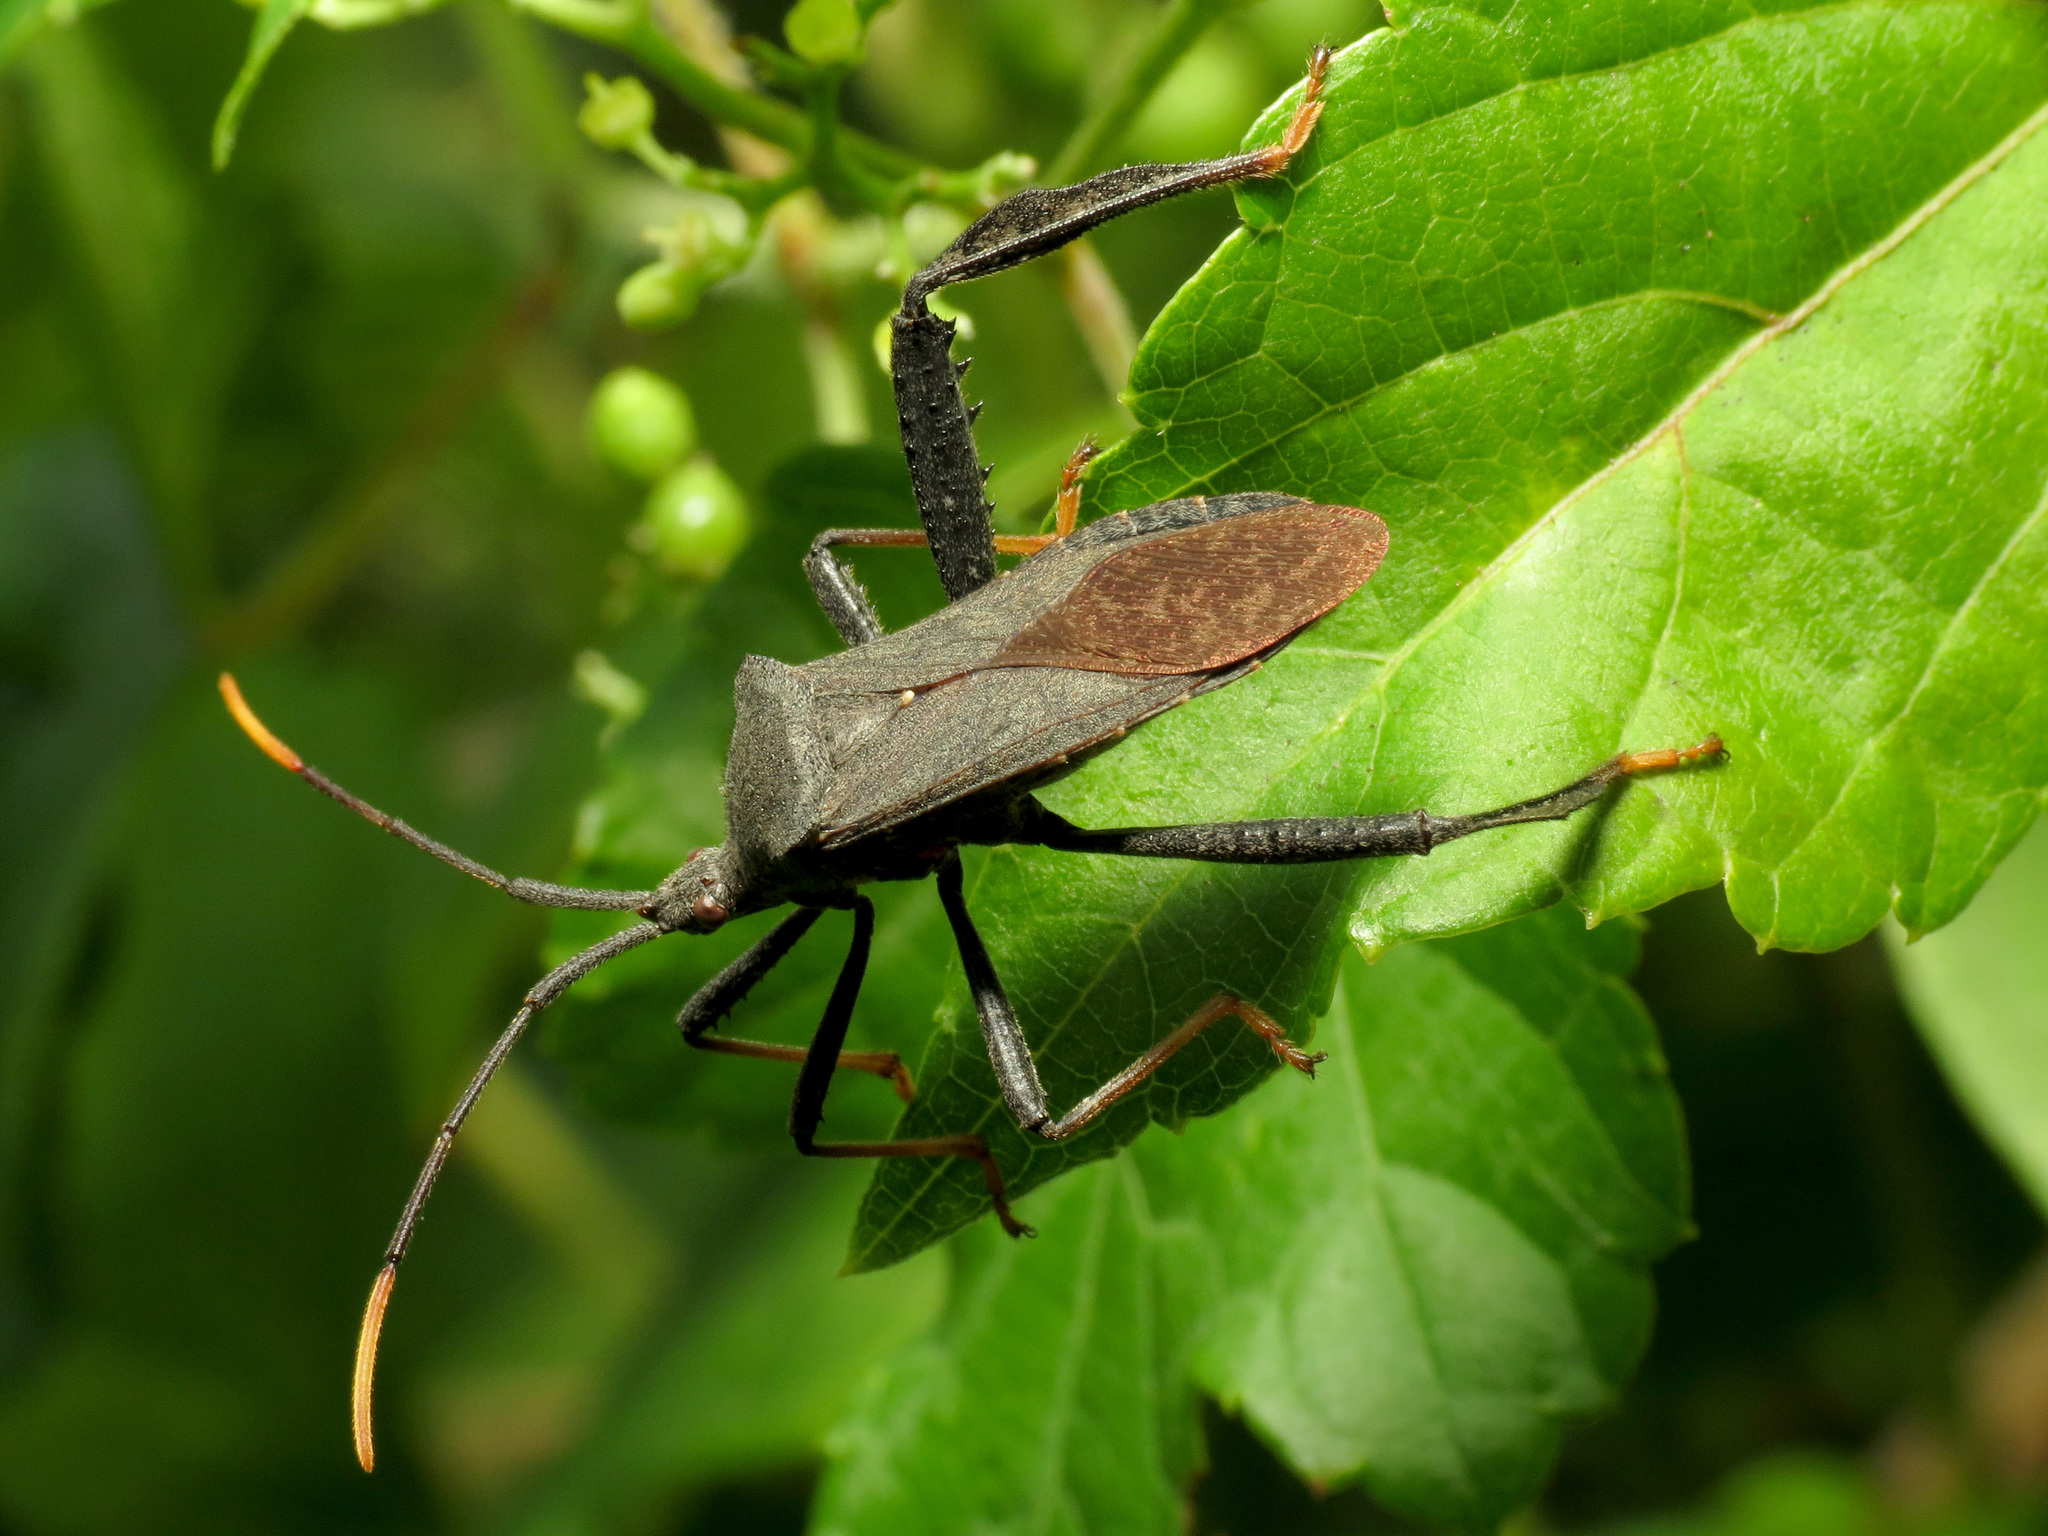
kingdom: Animalia
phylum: Arthropoda
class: Insecta
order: Hemiptera
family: Coreidae
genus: Acanthocephala
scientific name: Acanthocephala terminalis
